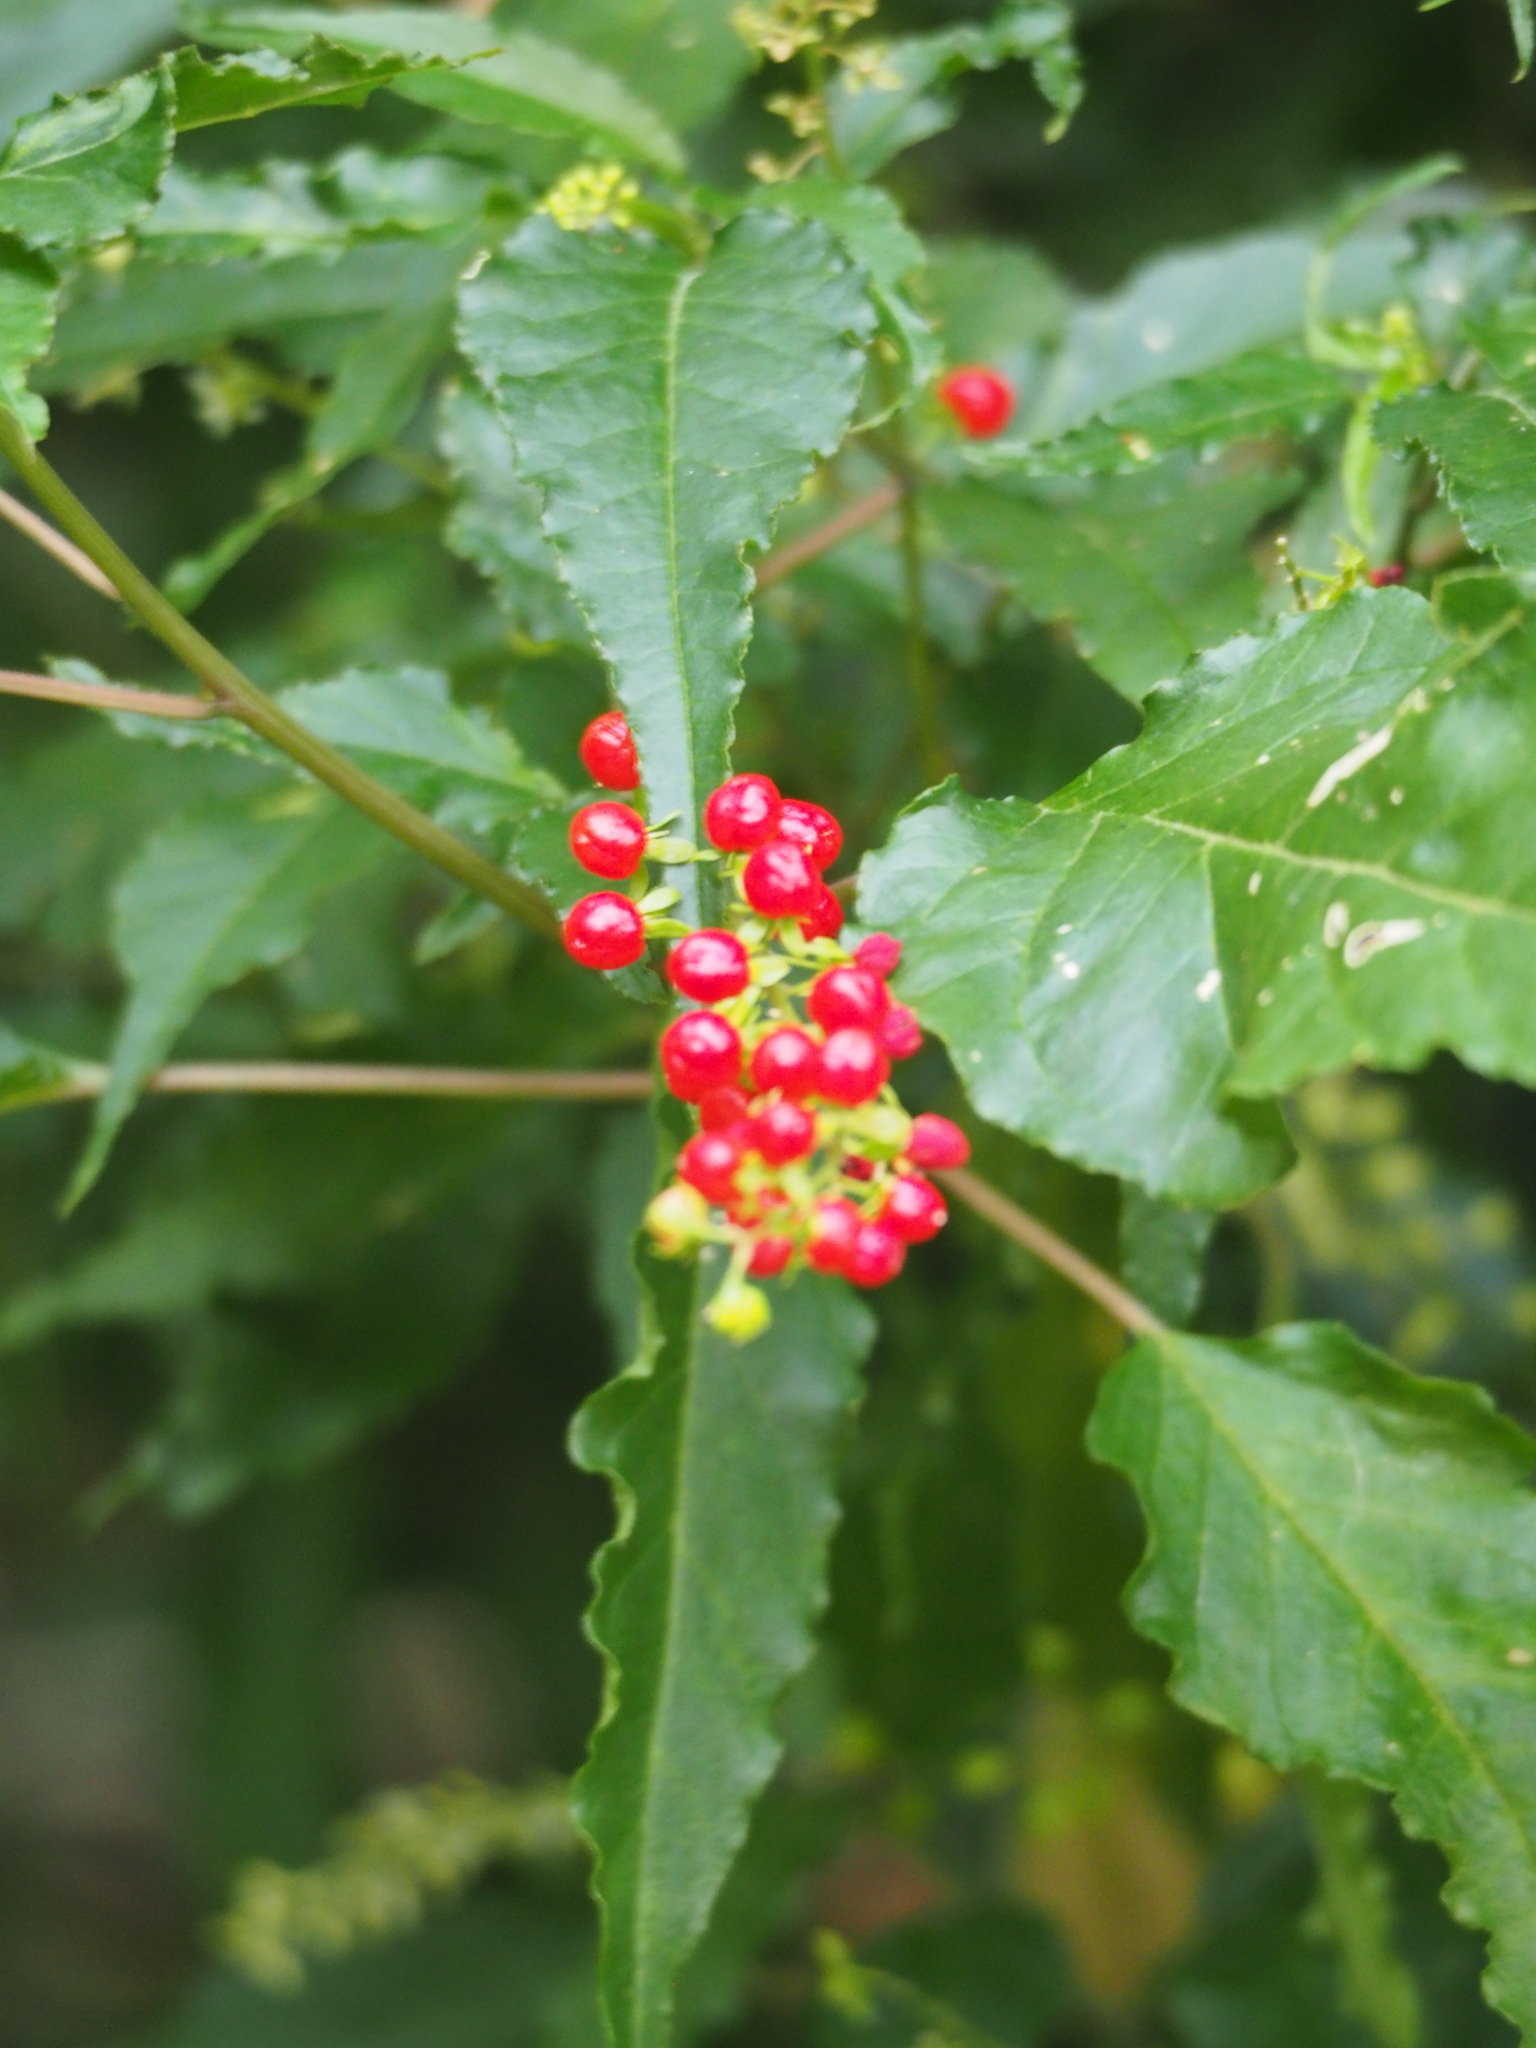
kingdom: Plantae
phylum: Tracheophyta
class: Magnoliopsida
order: Caryophyllales
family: Phytolaccaceae
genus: Rivina
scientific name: Rivina humilis
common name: Rougeplant
